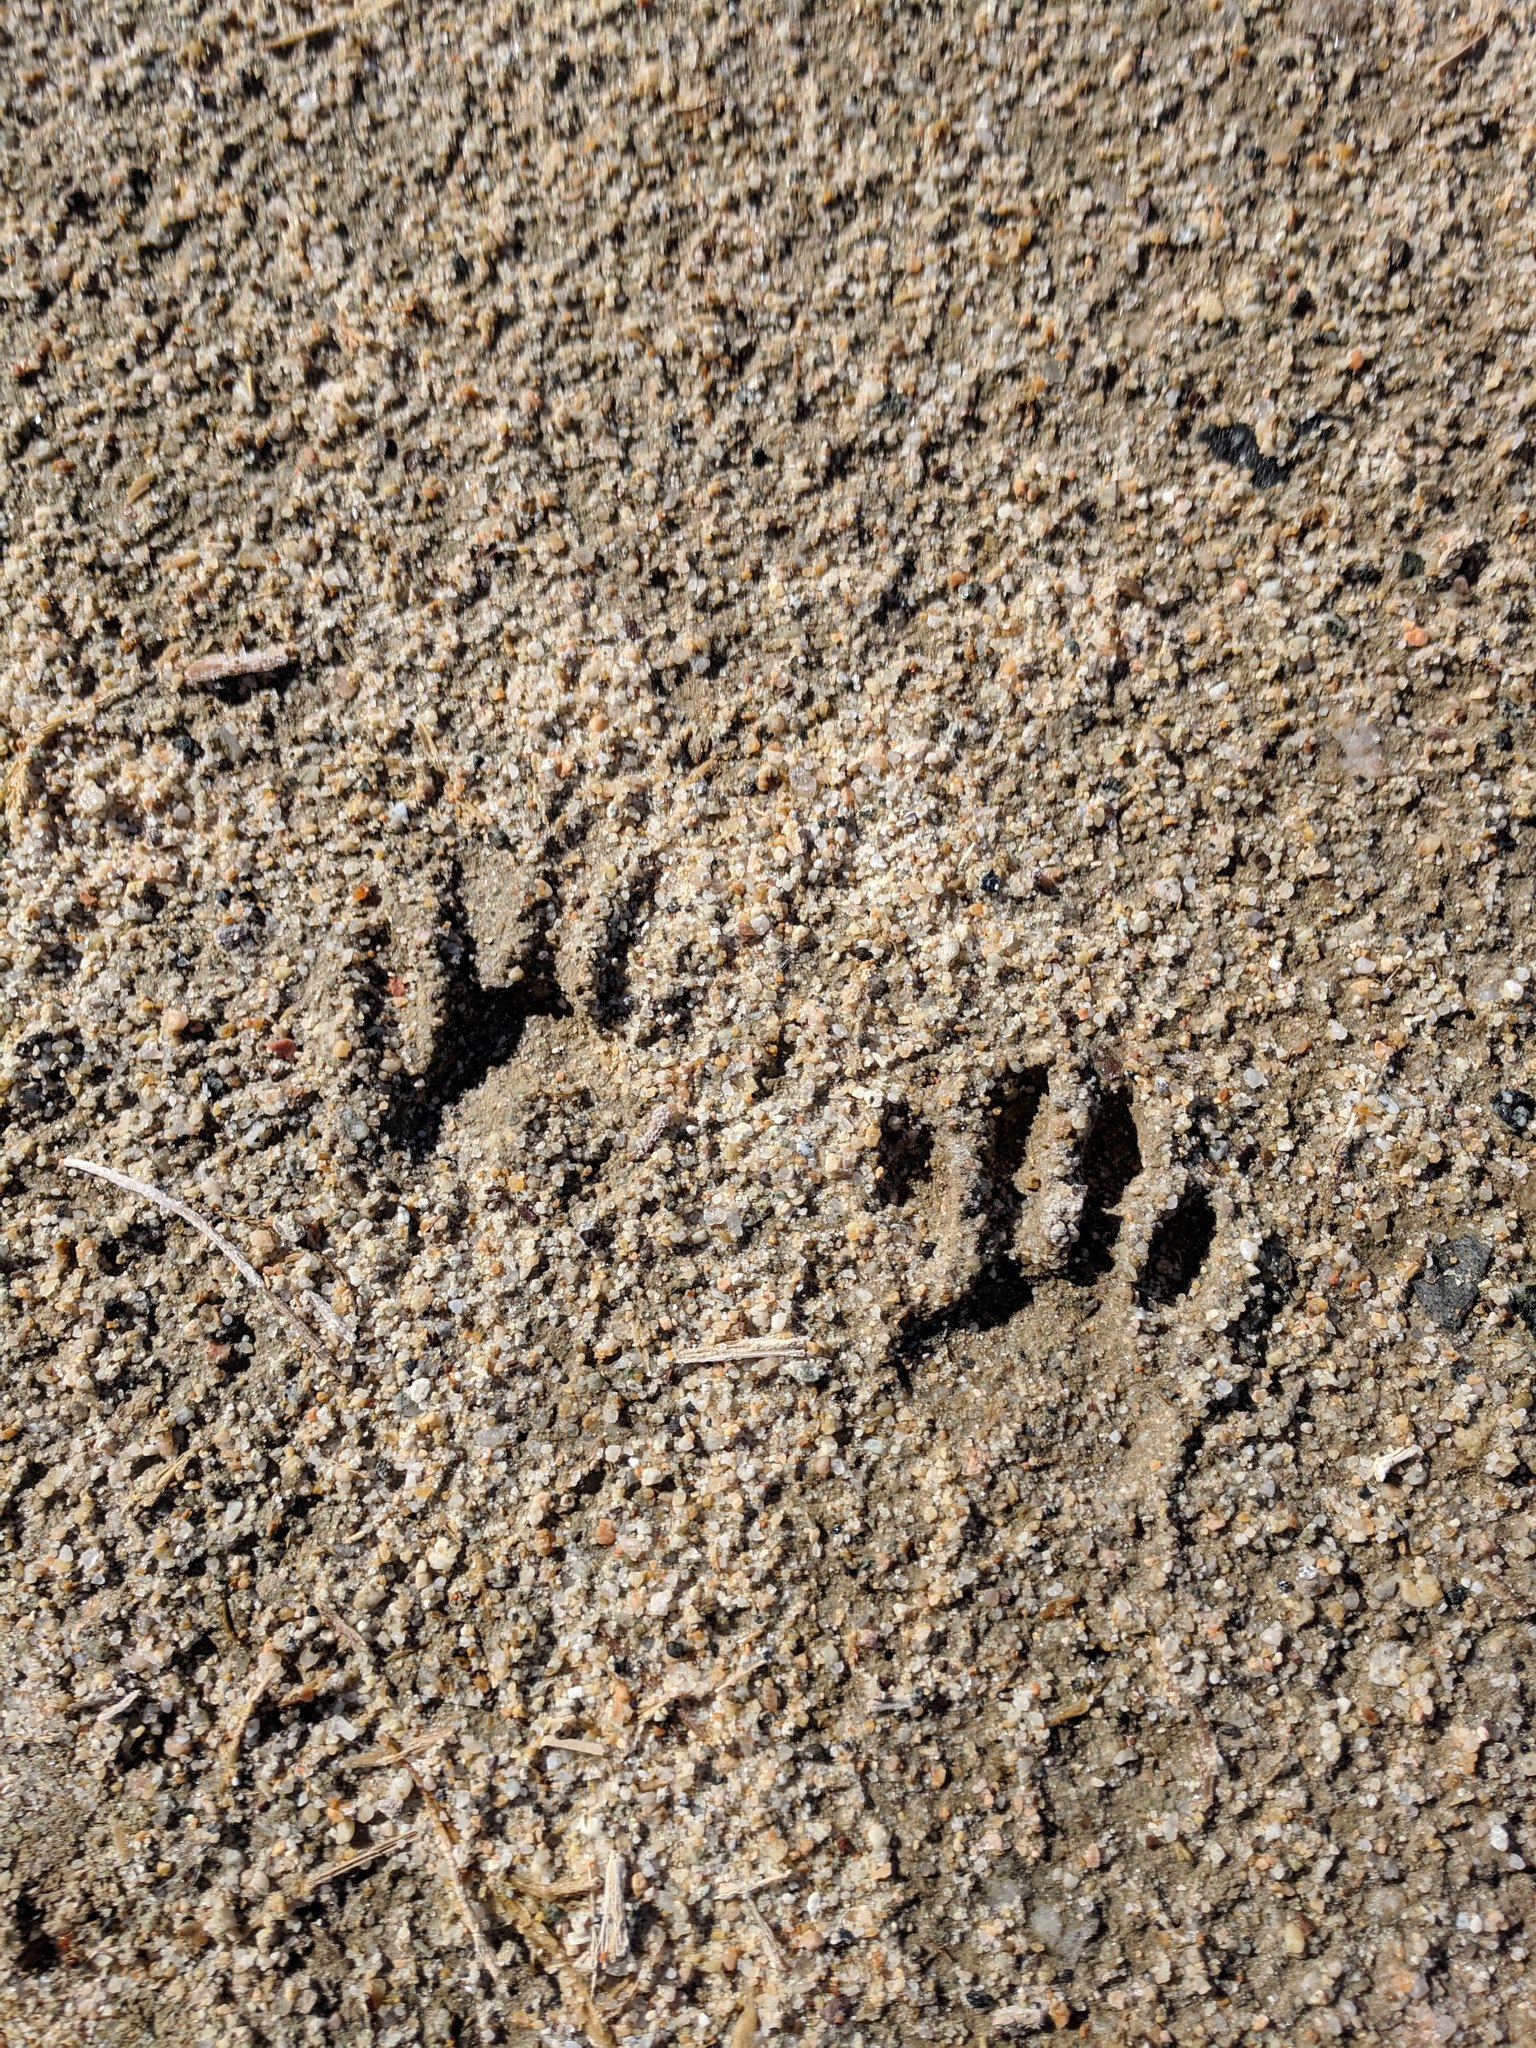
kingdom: Animalia
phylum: Chordata
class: Mammalia
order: Carnivora
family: Procyonidae
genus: Procyon
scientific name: Procyon lotor
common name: Raccoon
